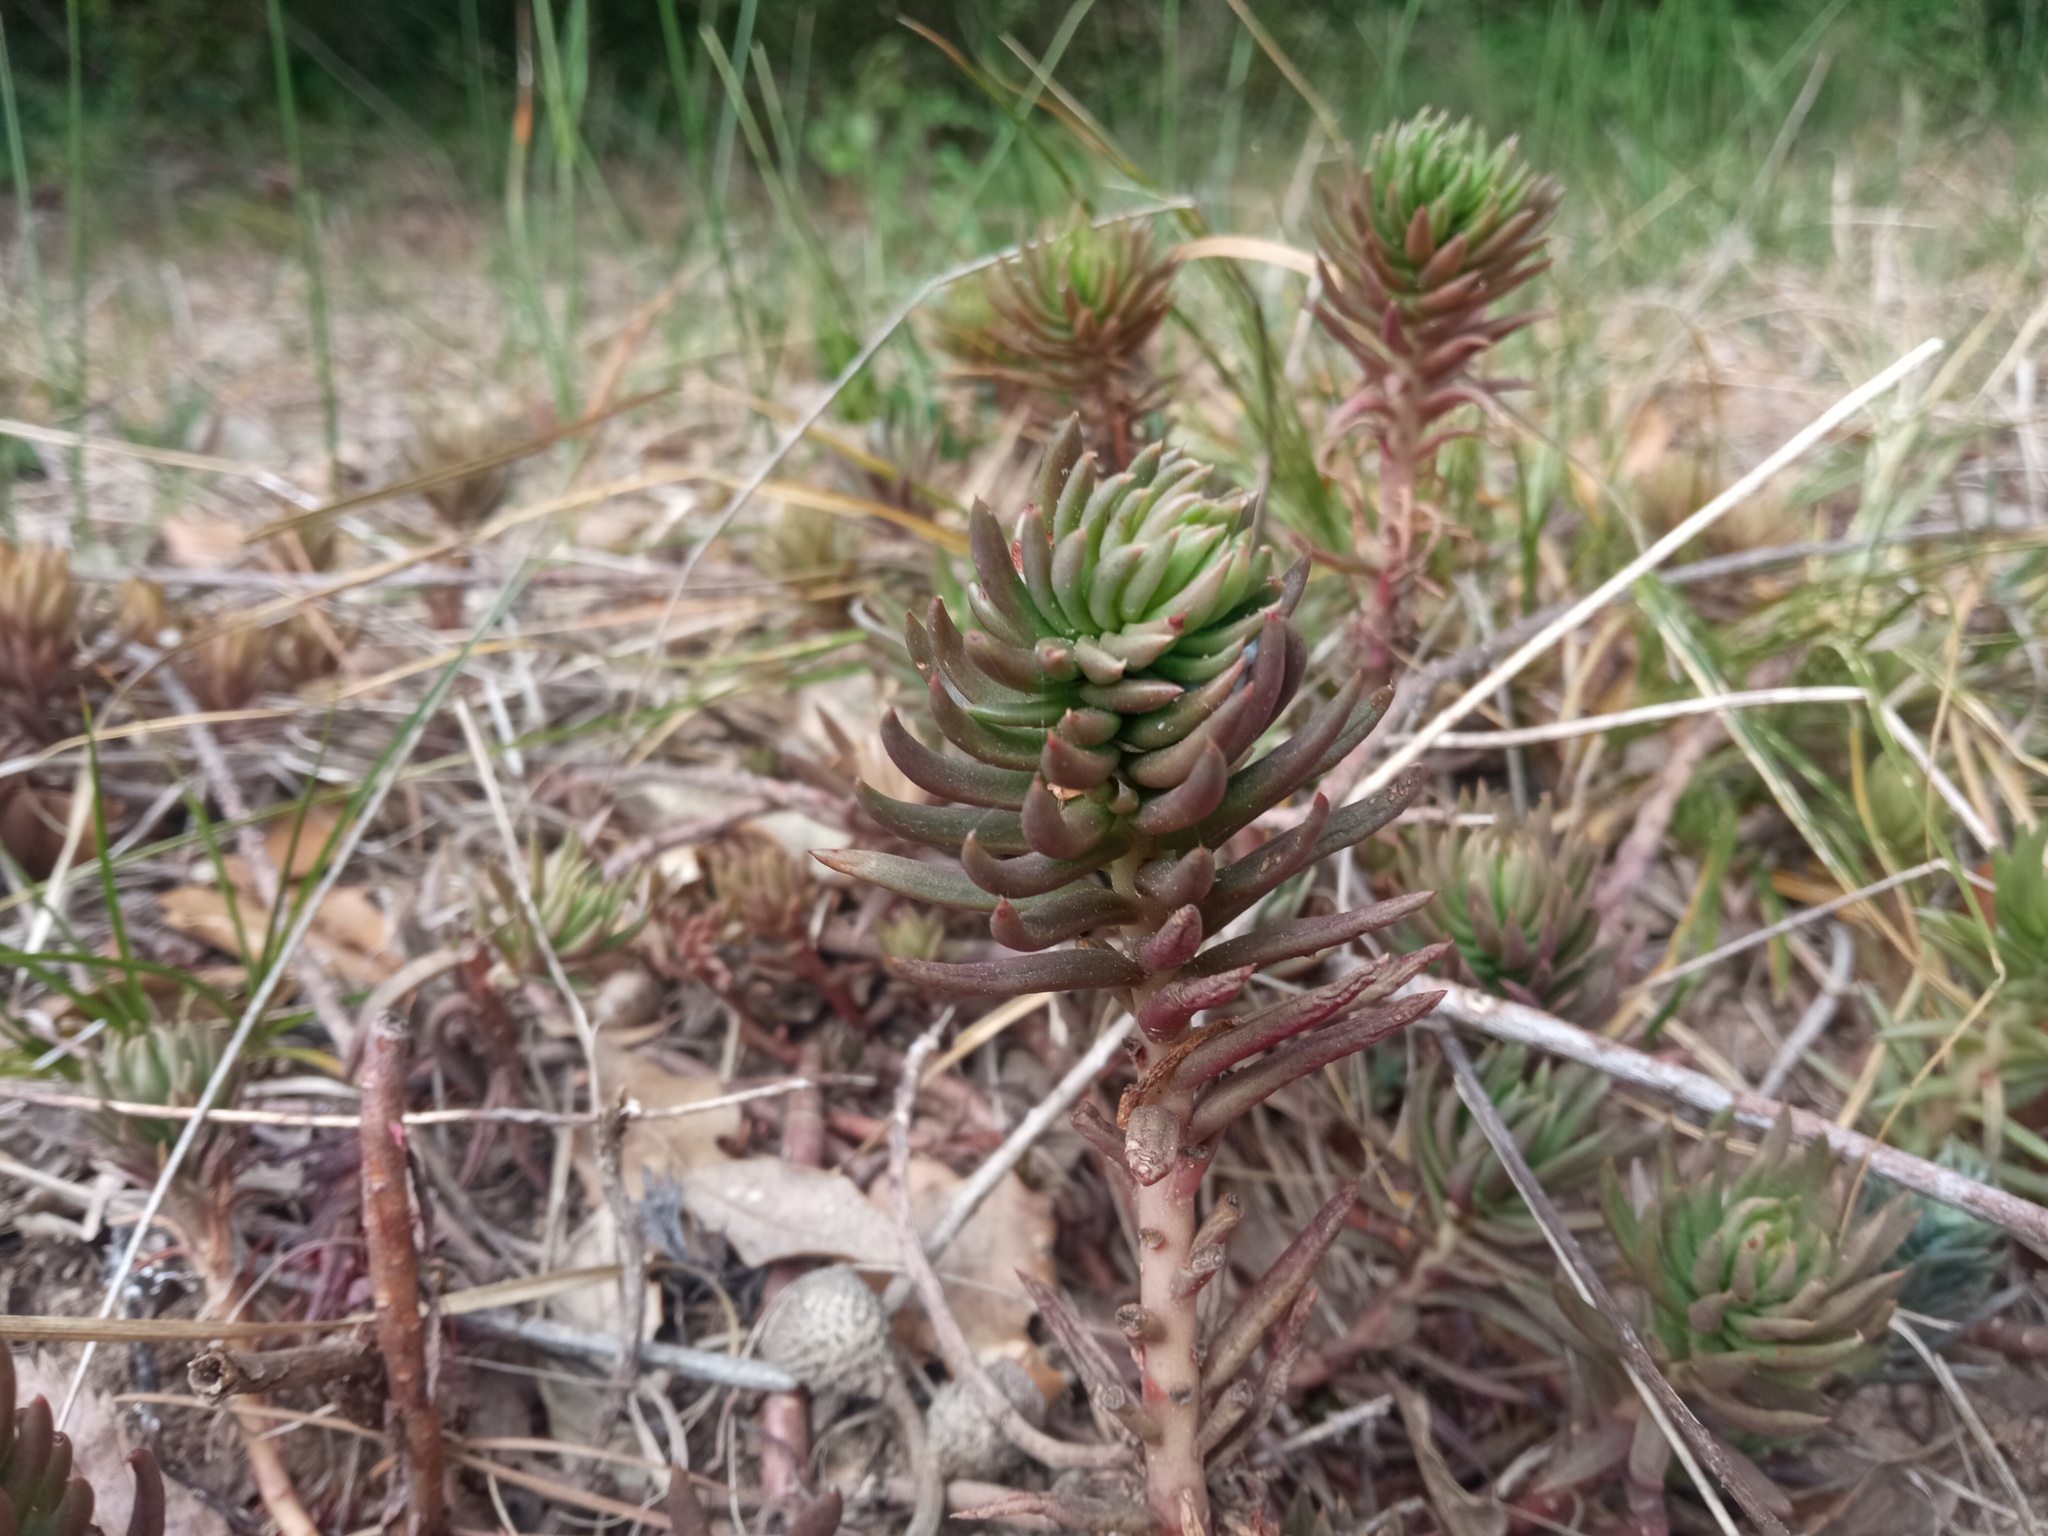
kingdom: Plantae
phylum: Tracheophyta
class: Magnoliopsida
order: Saxifragales
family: Crassulaceae
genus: Petrosedum
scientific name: Petrosedum sediforme
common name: Pale stonecrop
